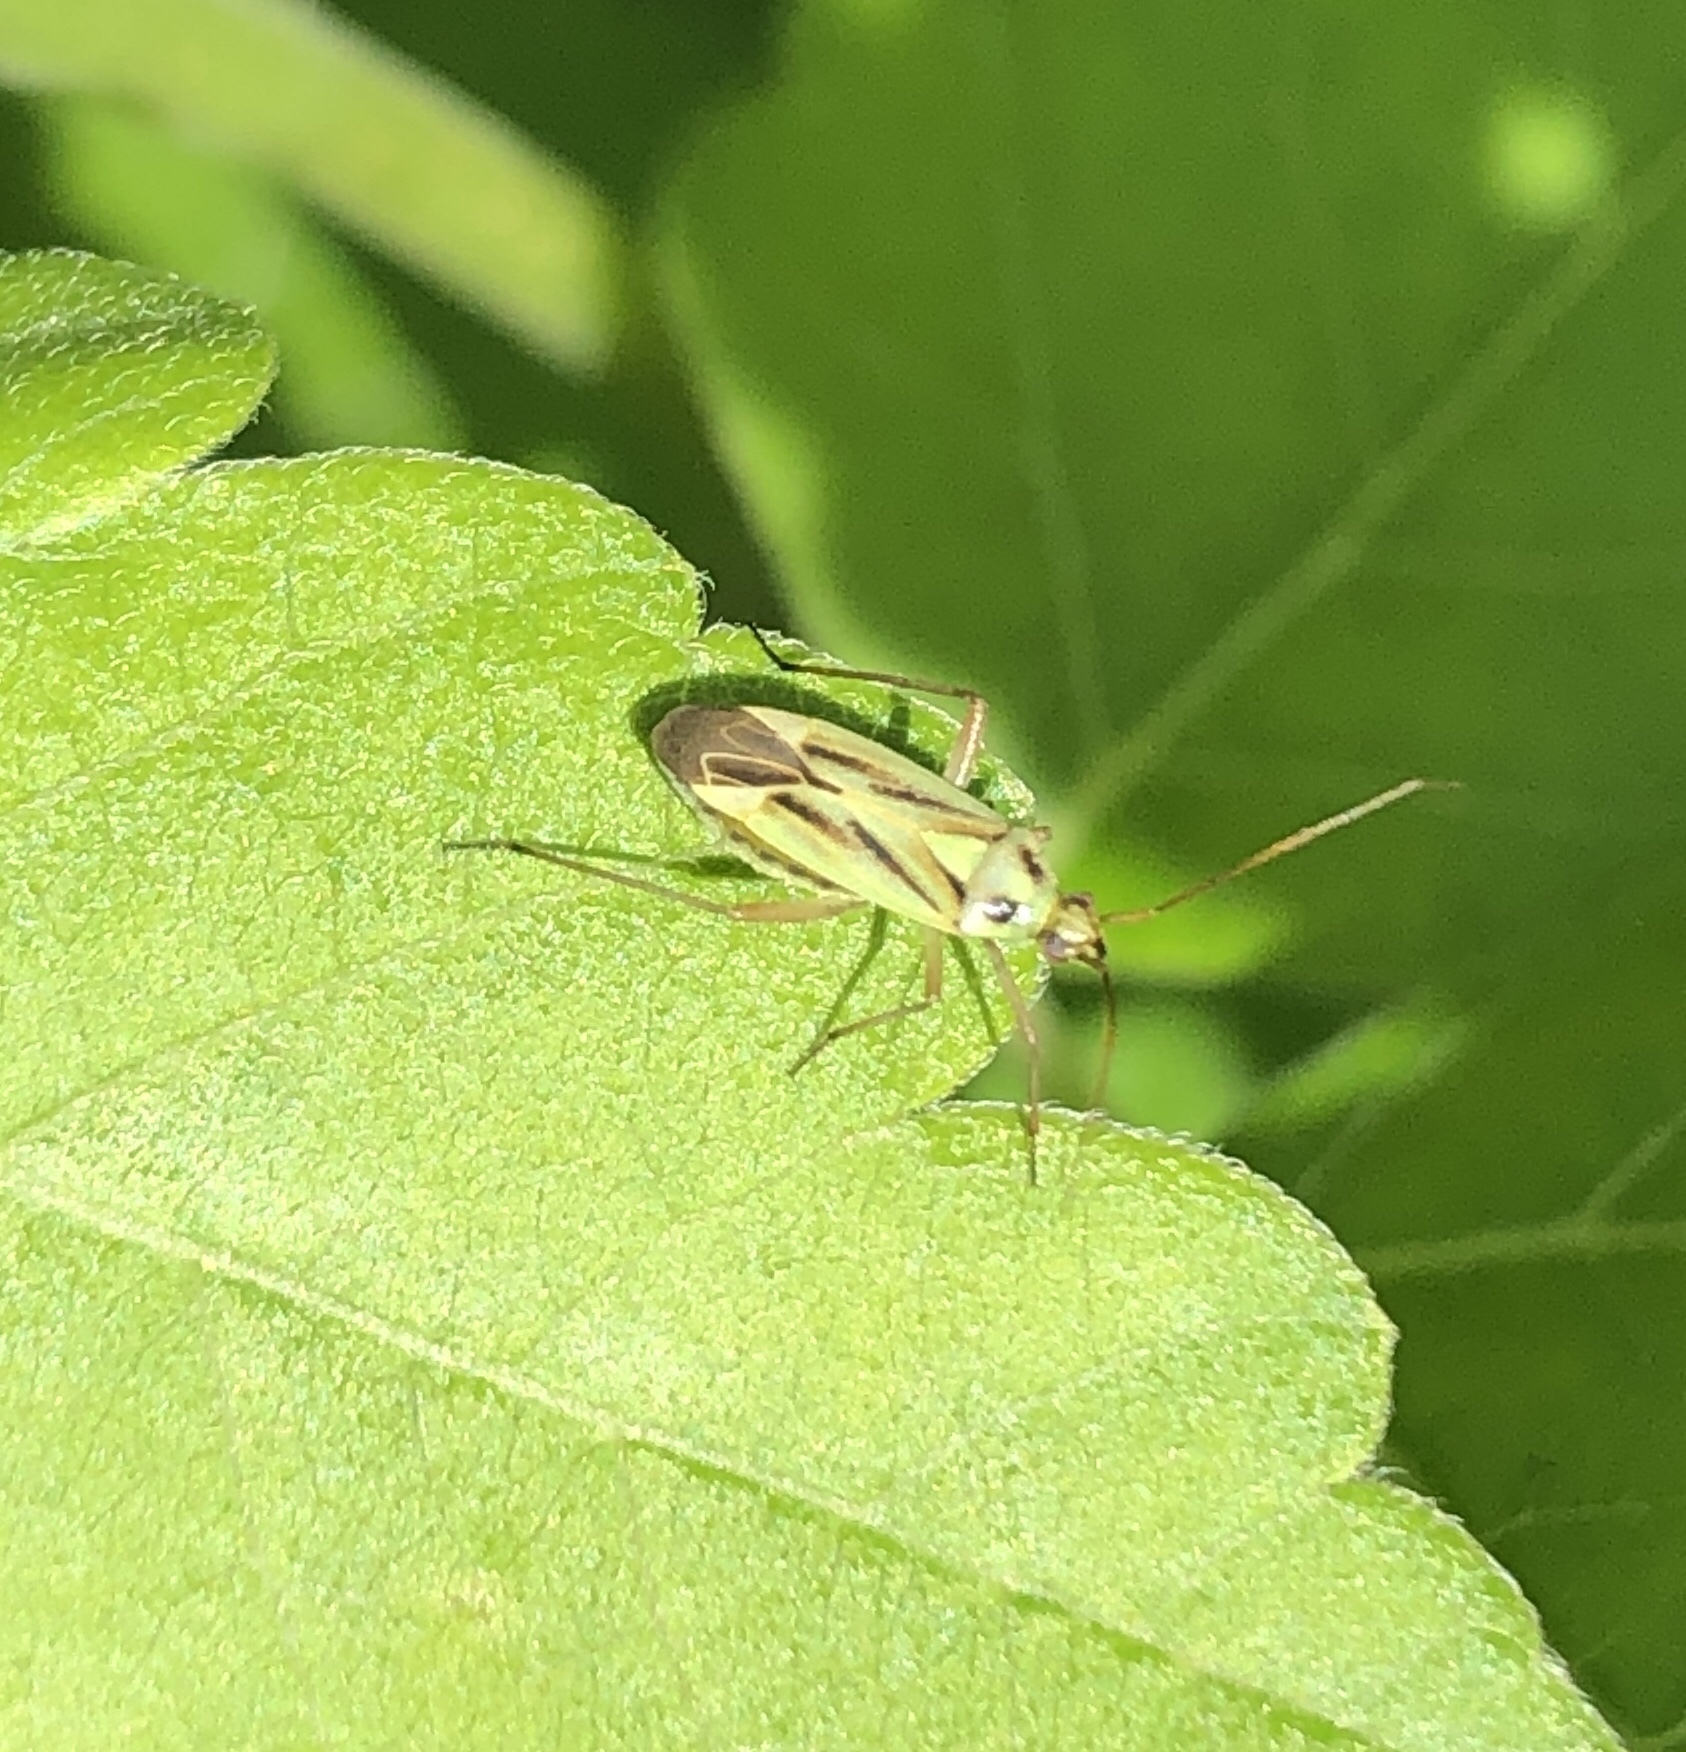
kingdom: Animalia
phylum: Arthropoda
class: Insecta
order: Hemiptera
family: Miridae
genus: Stenotus
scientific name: Stenotus binotatus
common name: Plant bug
